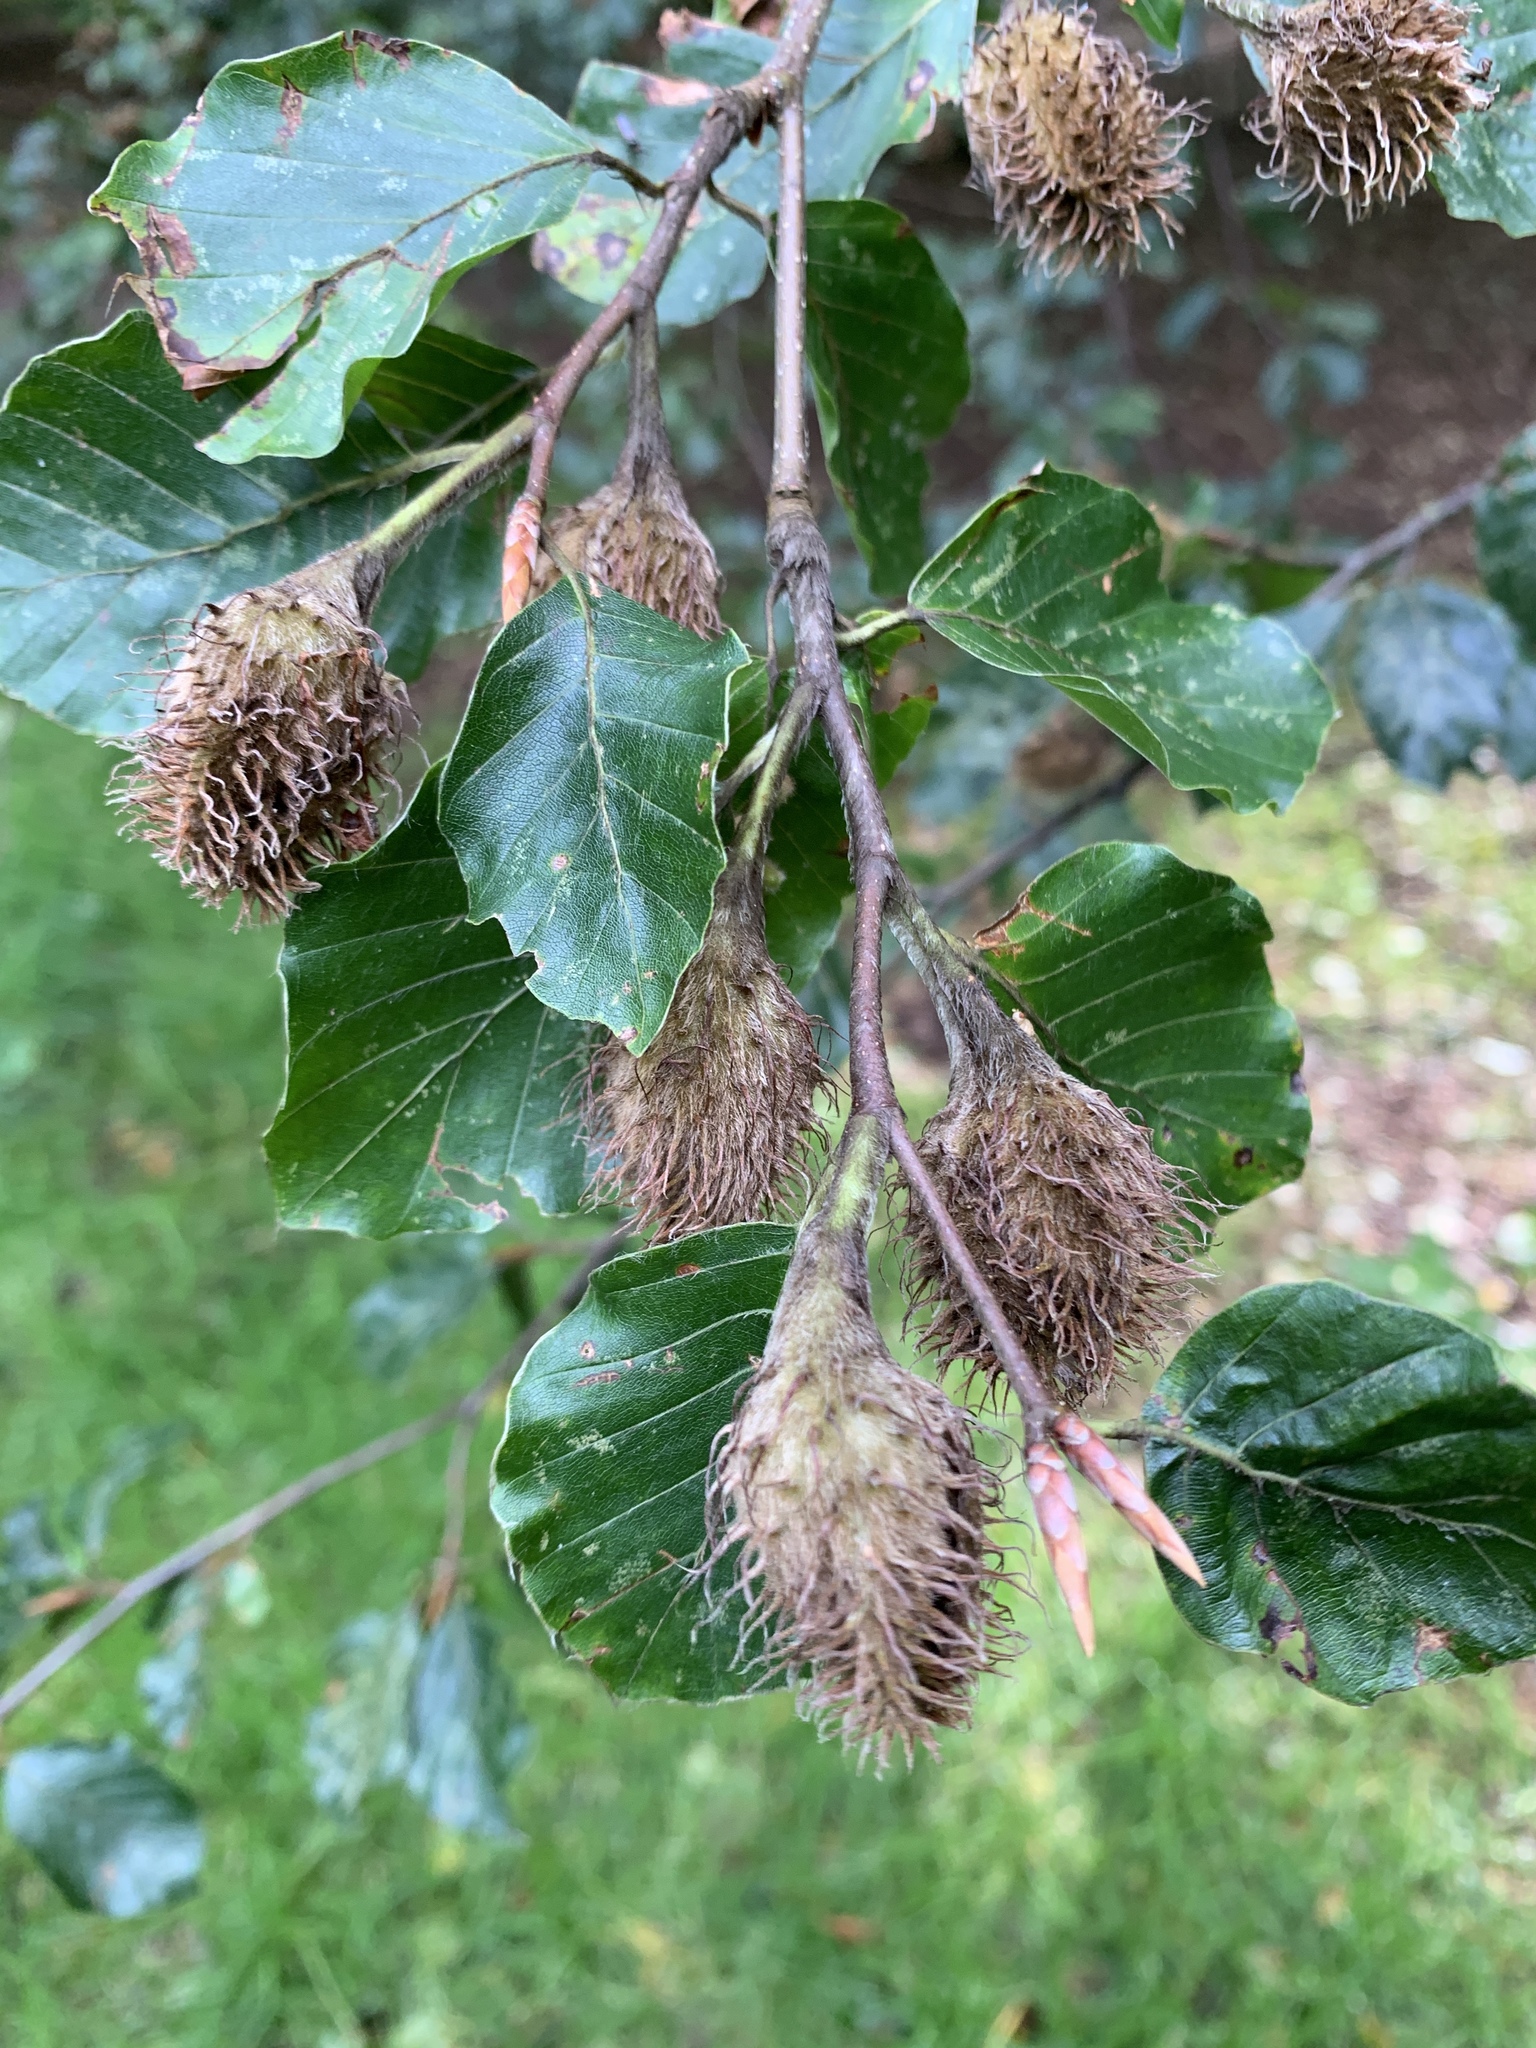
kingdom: Plantae
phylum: Tracheophyta
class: Magnoliopsida
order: Fagales
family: Fagaceae
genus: Fagus
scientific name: Fagus sylvatica
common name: Beech
